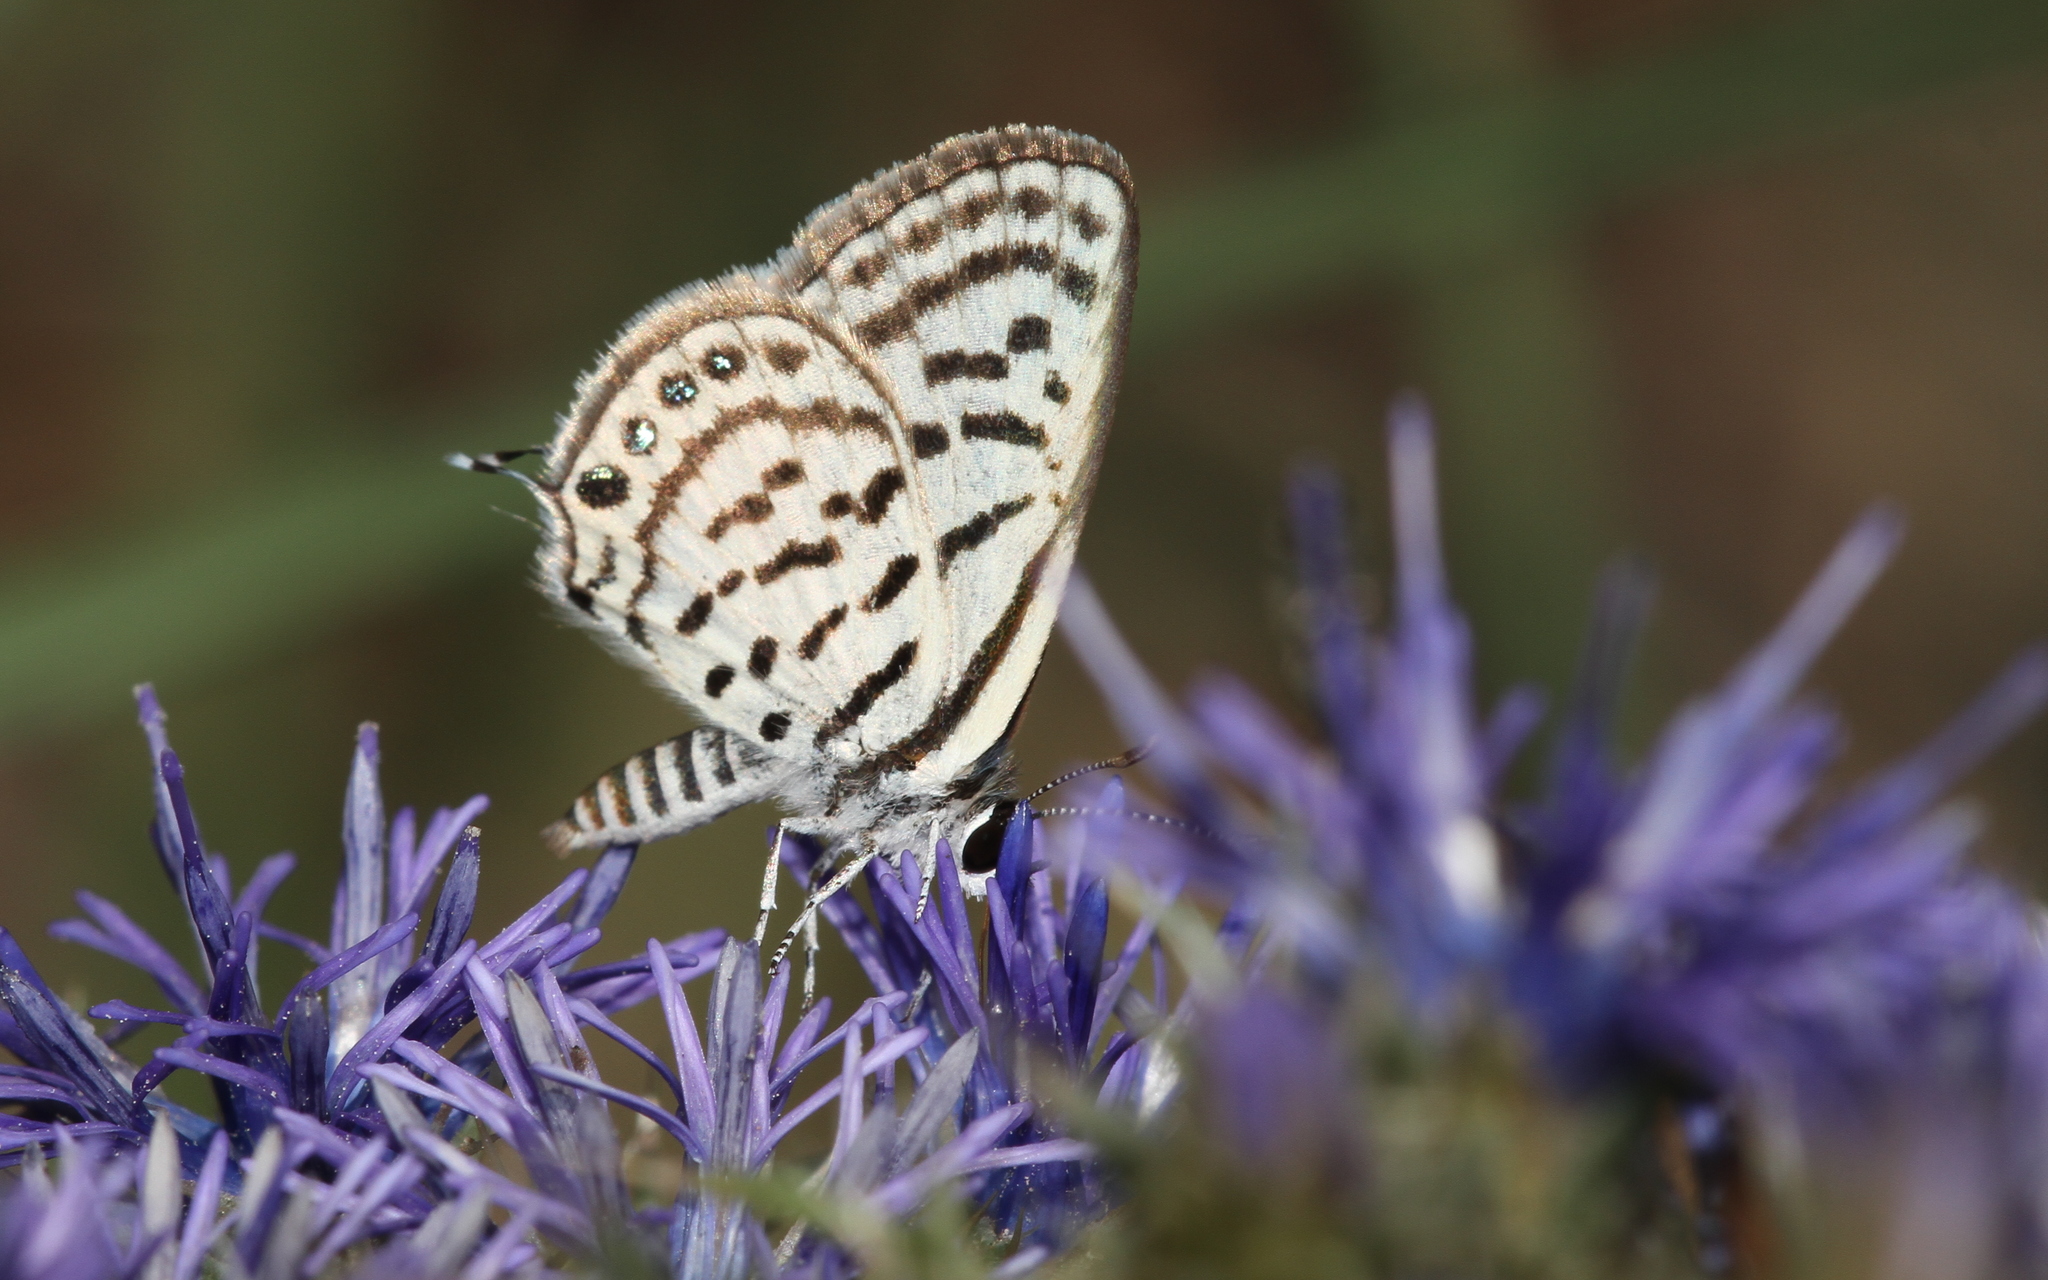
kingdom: Animalia
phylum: Arthropoda
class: Insecta
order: Lepidoptera
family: Lycaenidae
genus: Tarucus
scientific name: Tarucus balkanica
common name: Little tiger blue
